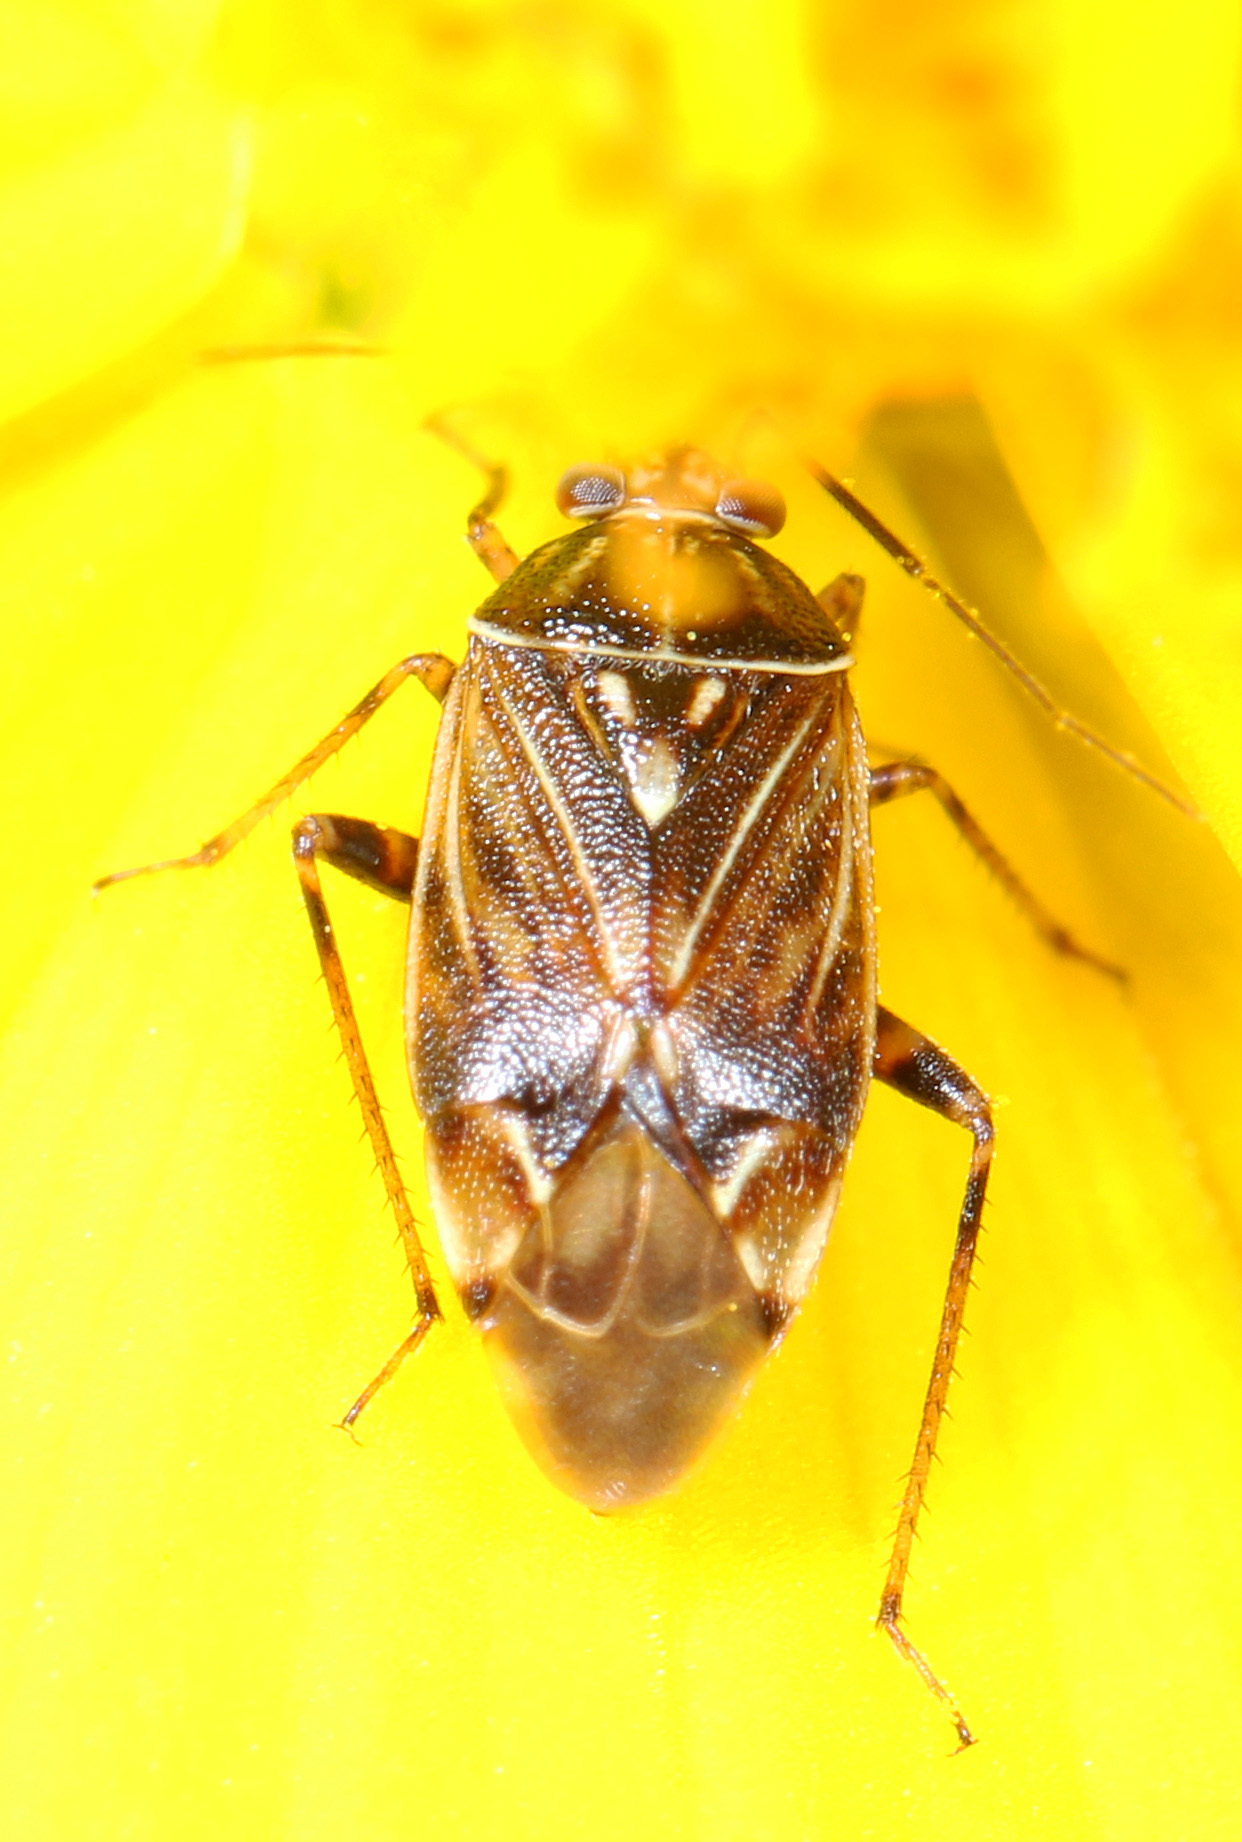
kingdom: Animalia
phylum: Arthropoda
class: Insecta
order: Hemiptera
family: Miridae
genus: Lygus
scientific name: Lygus lineolaris
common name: North american tarnished plant bug
